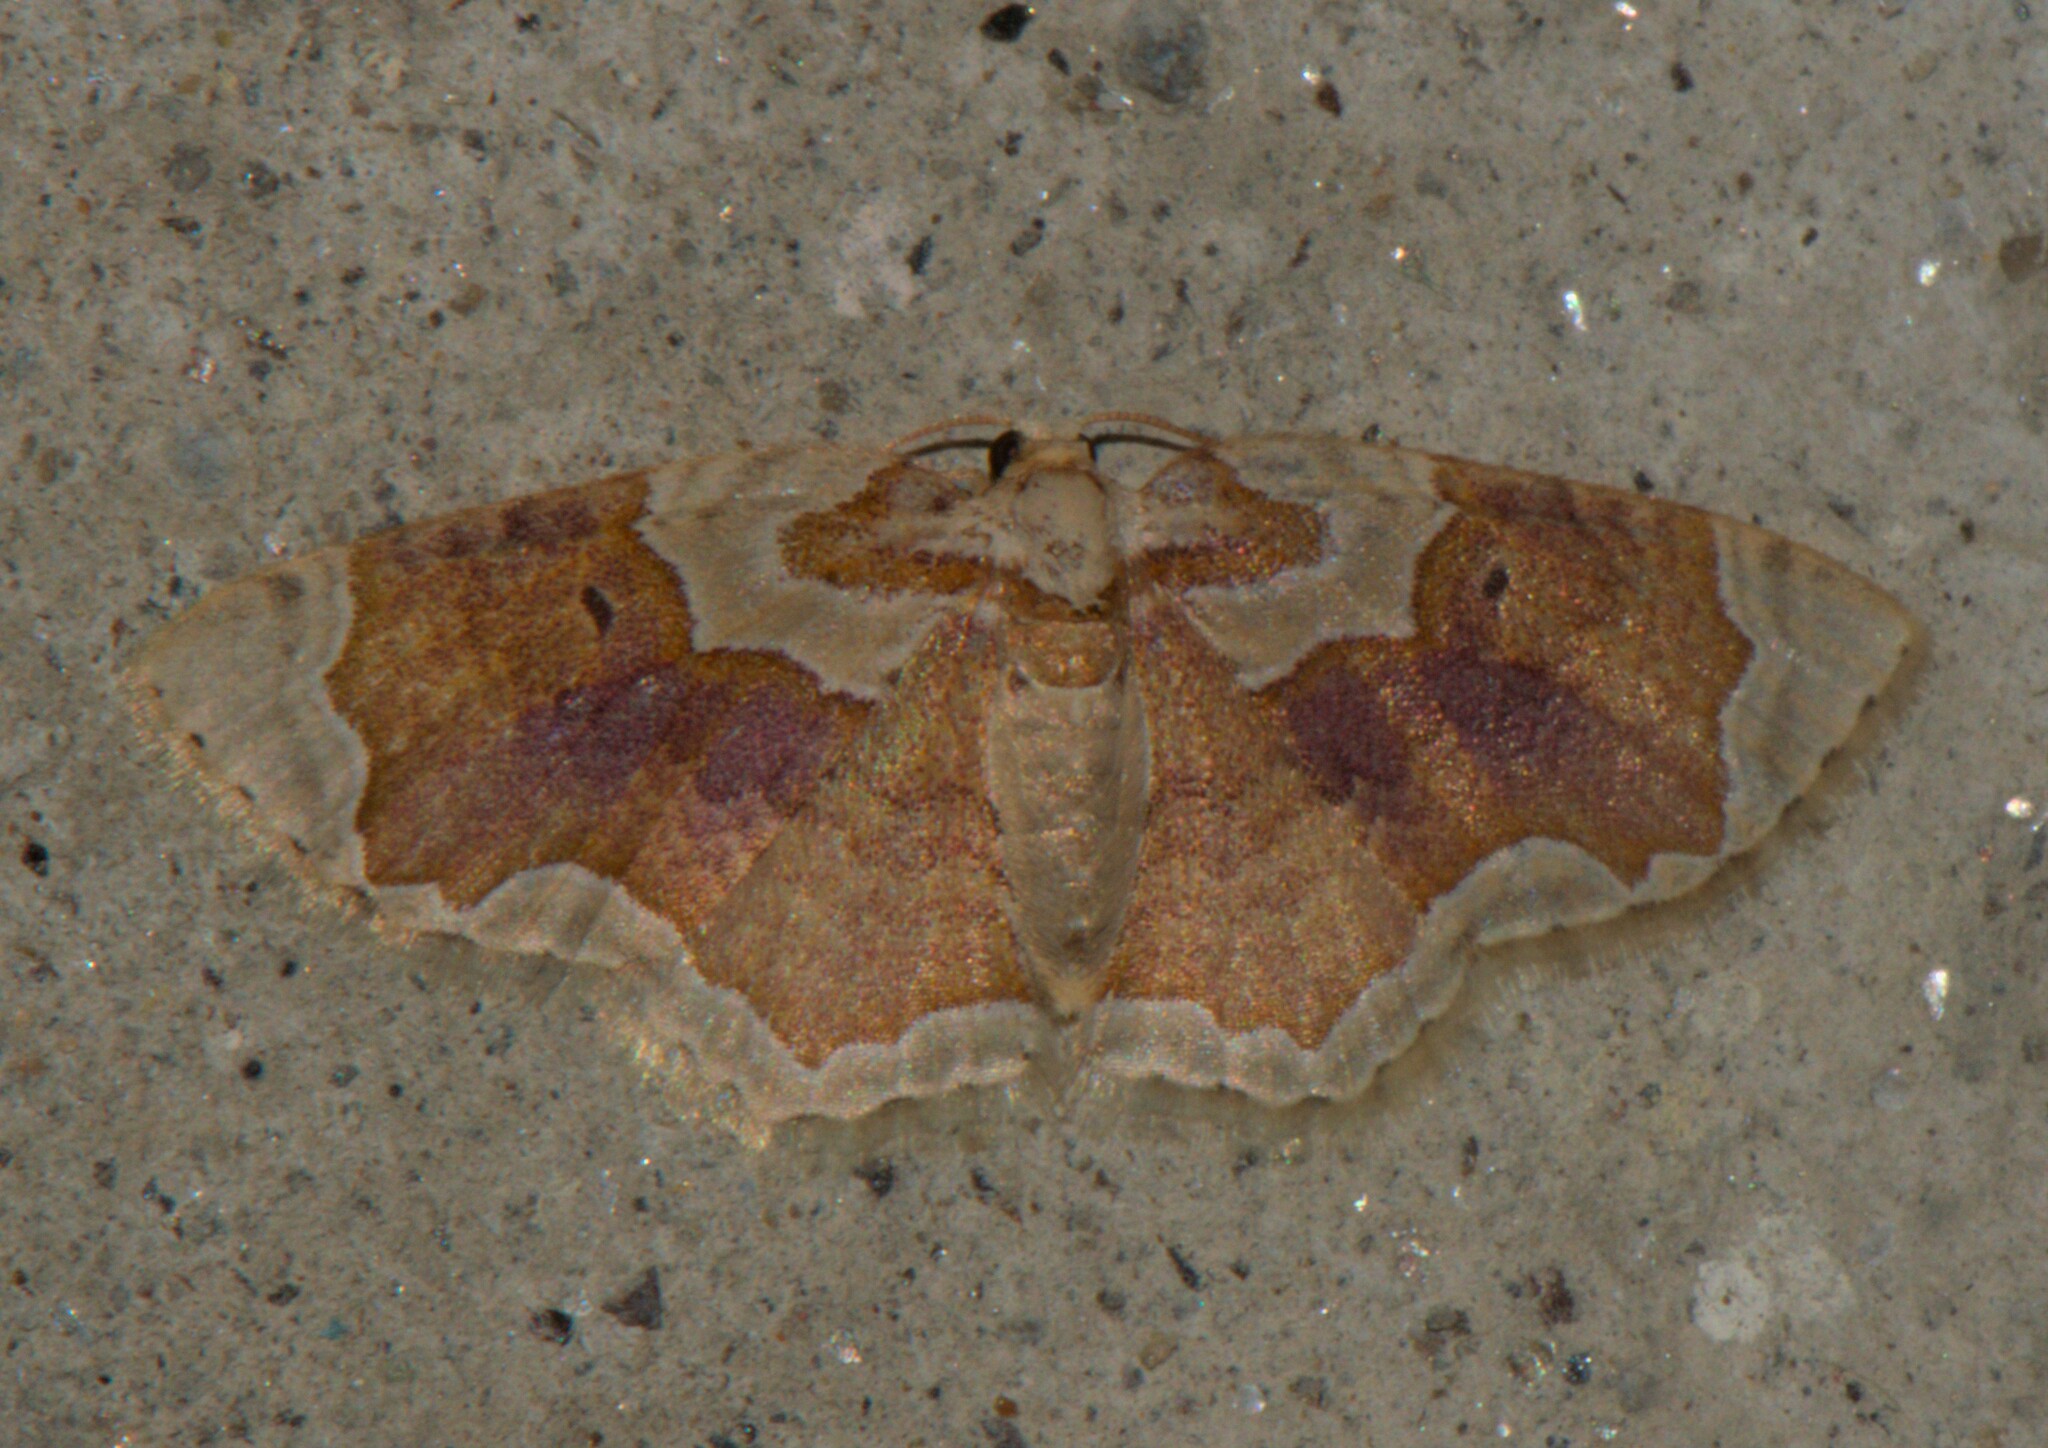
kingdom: Animalia
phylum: Arthropoda
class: Insecta
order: Lepidoptera
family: Geometridae
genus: Palpoctenidia
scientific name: Palpoctenidia phoenicosoma
